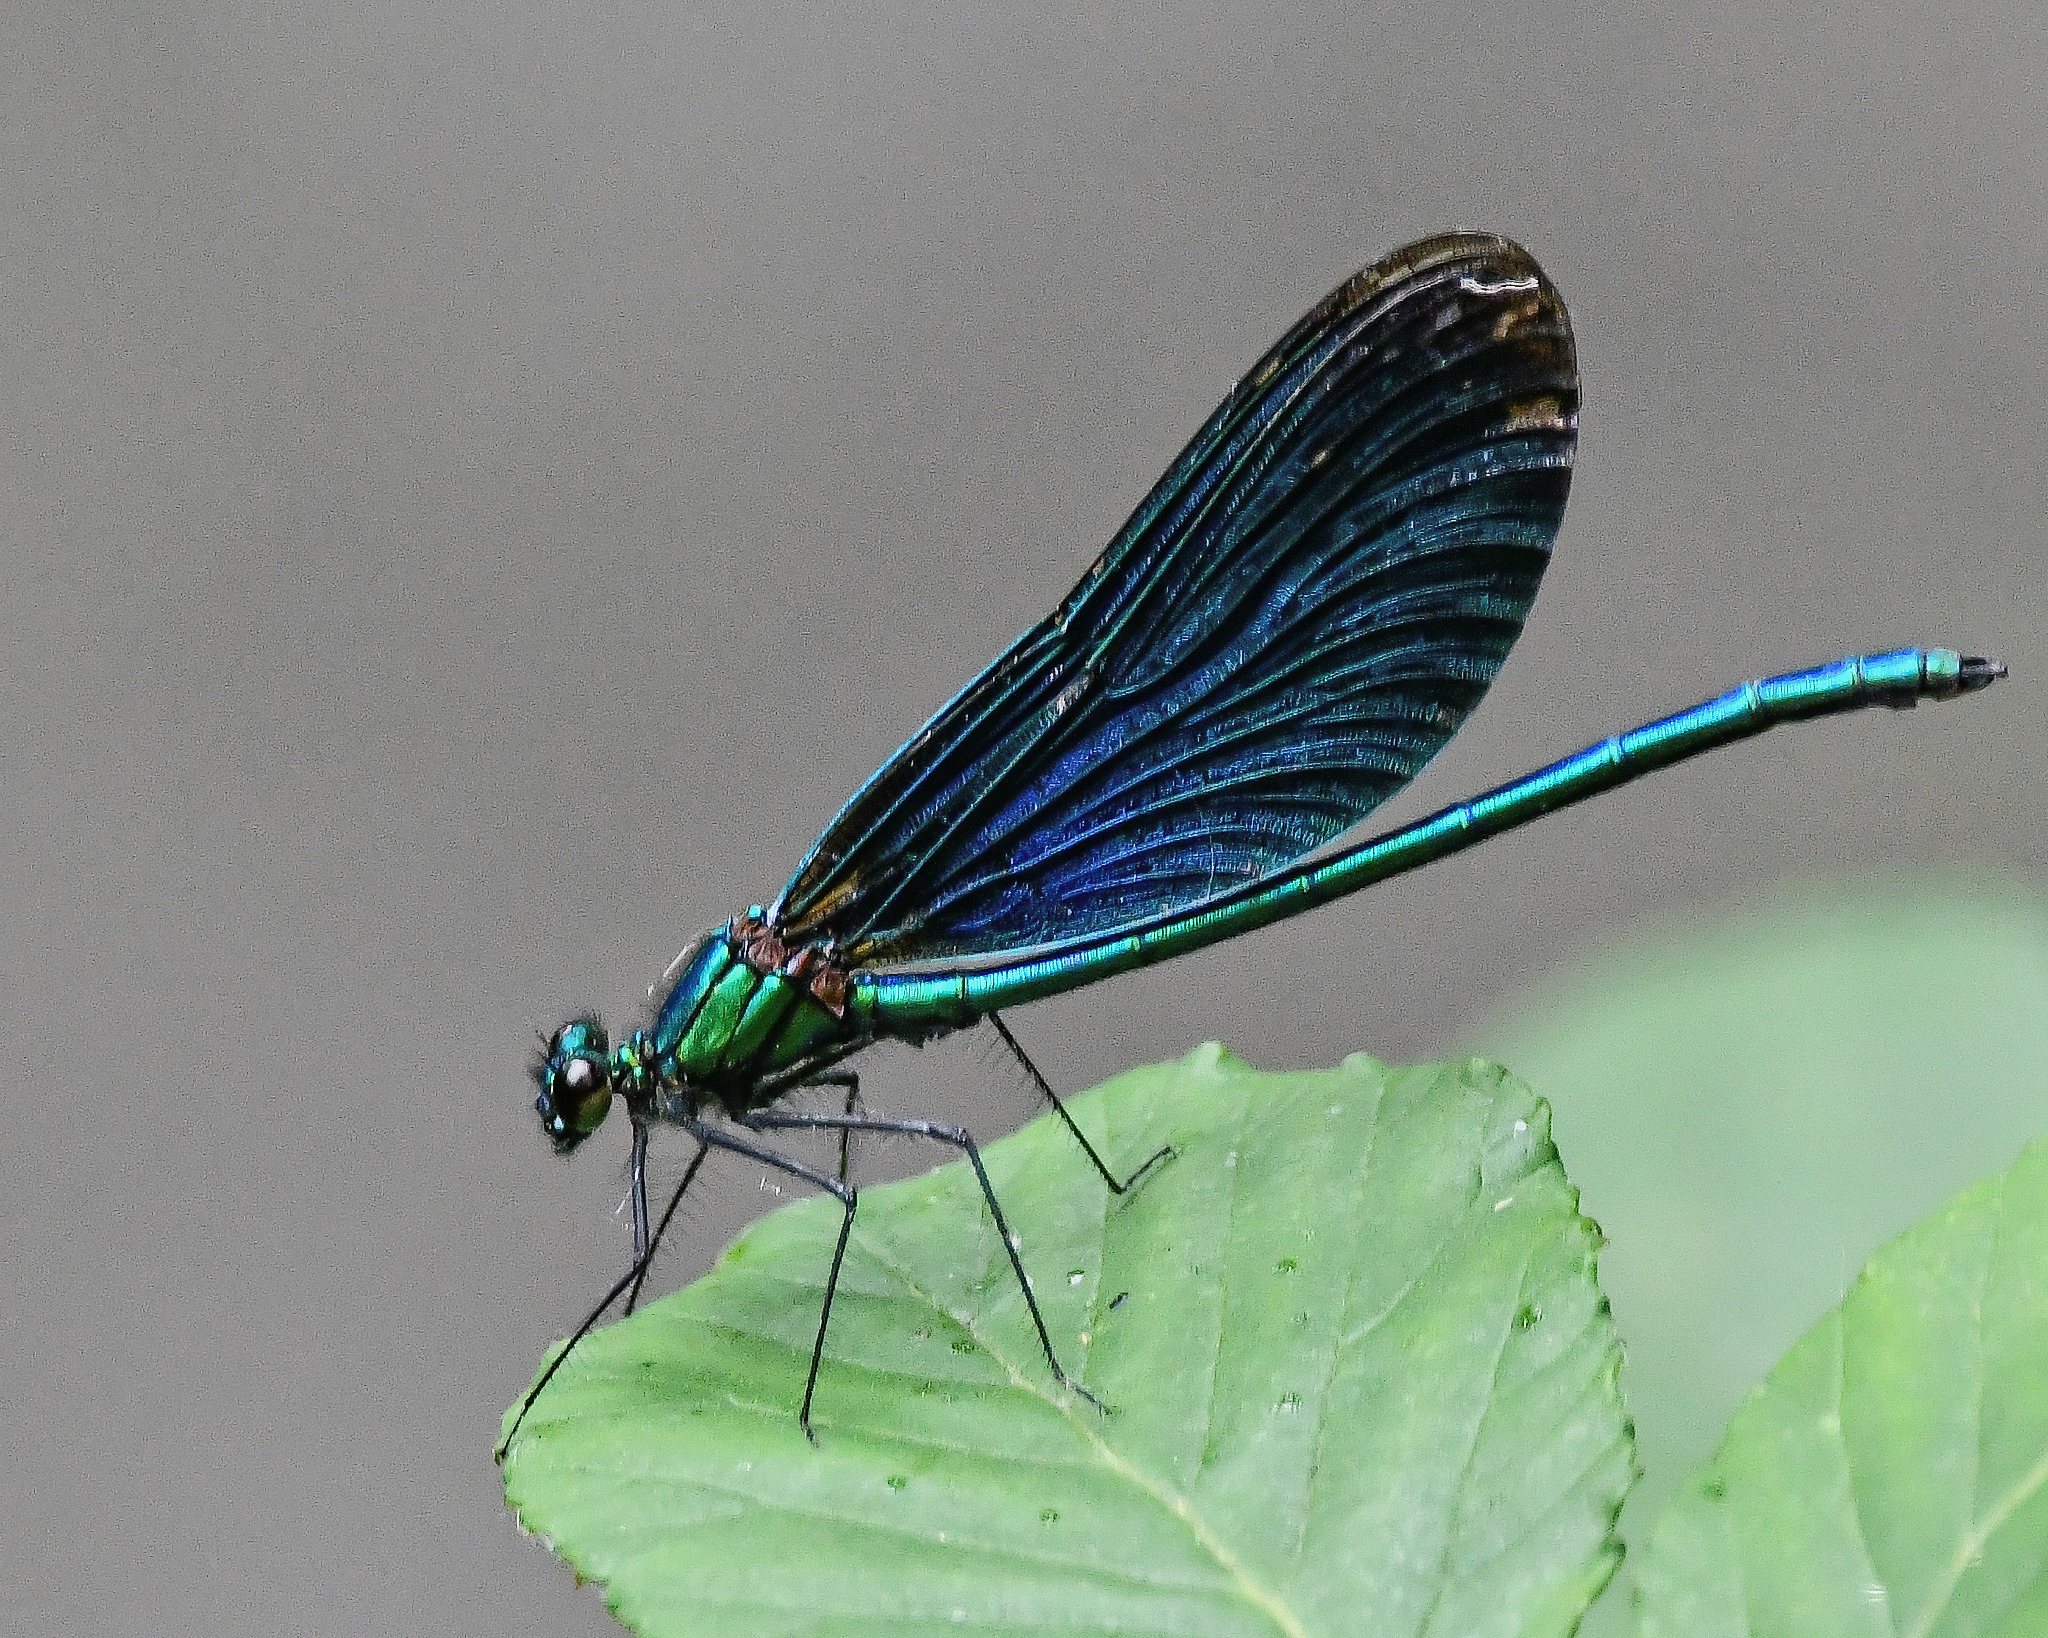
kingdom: Animalia
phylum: Arthropoda
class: Insecta
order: Odonata
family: Calopterygidae
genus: Calopteryx
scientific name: Calopteryx virgo
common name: Beautiful demoiselle
